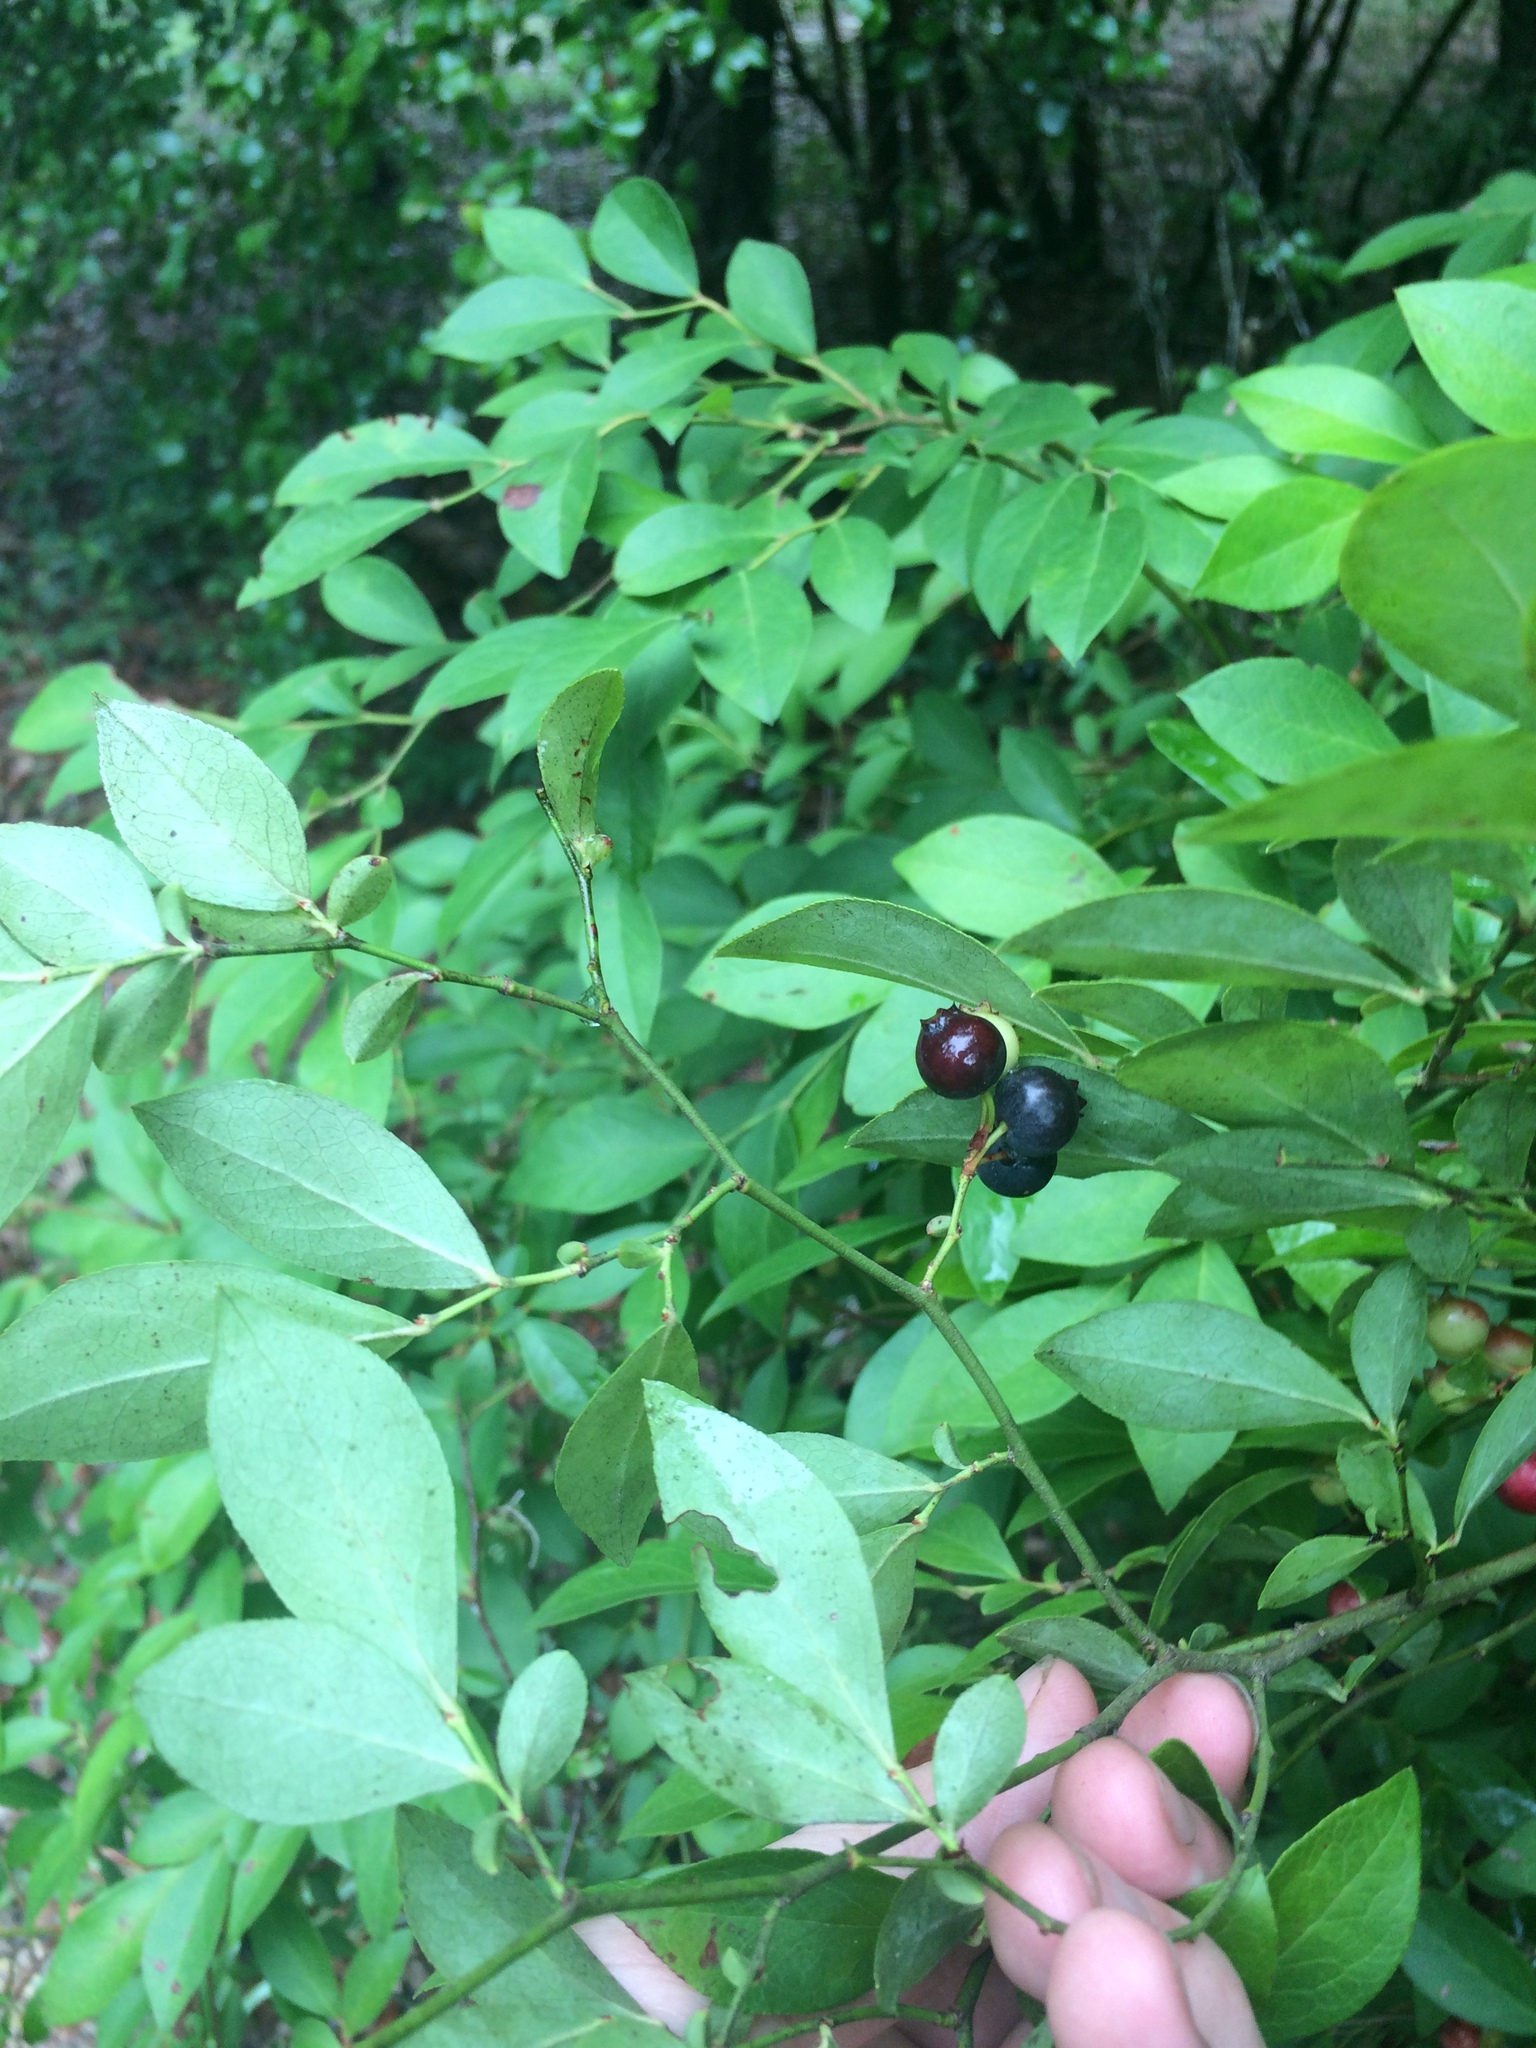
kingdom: Plantae
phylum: Tracheophyta
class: Magnoliopsida
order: Ericales
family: Ericaceae
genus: Vaccinium
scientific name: Vaccinium corymbosum
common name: Blueberry
